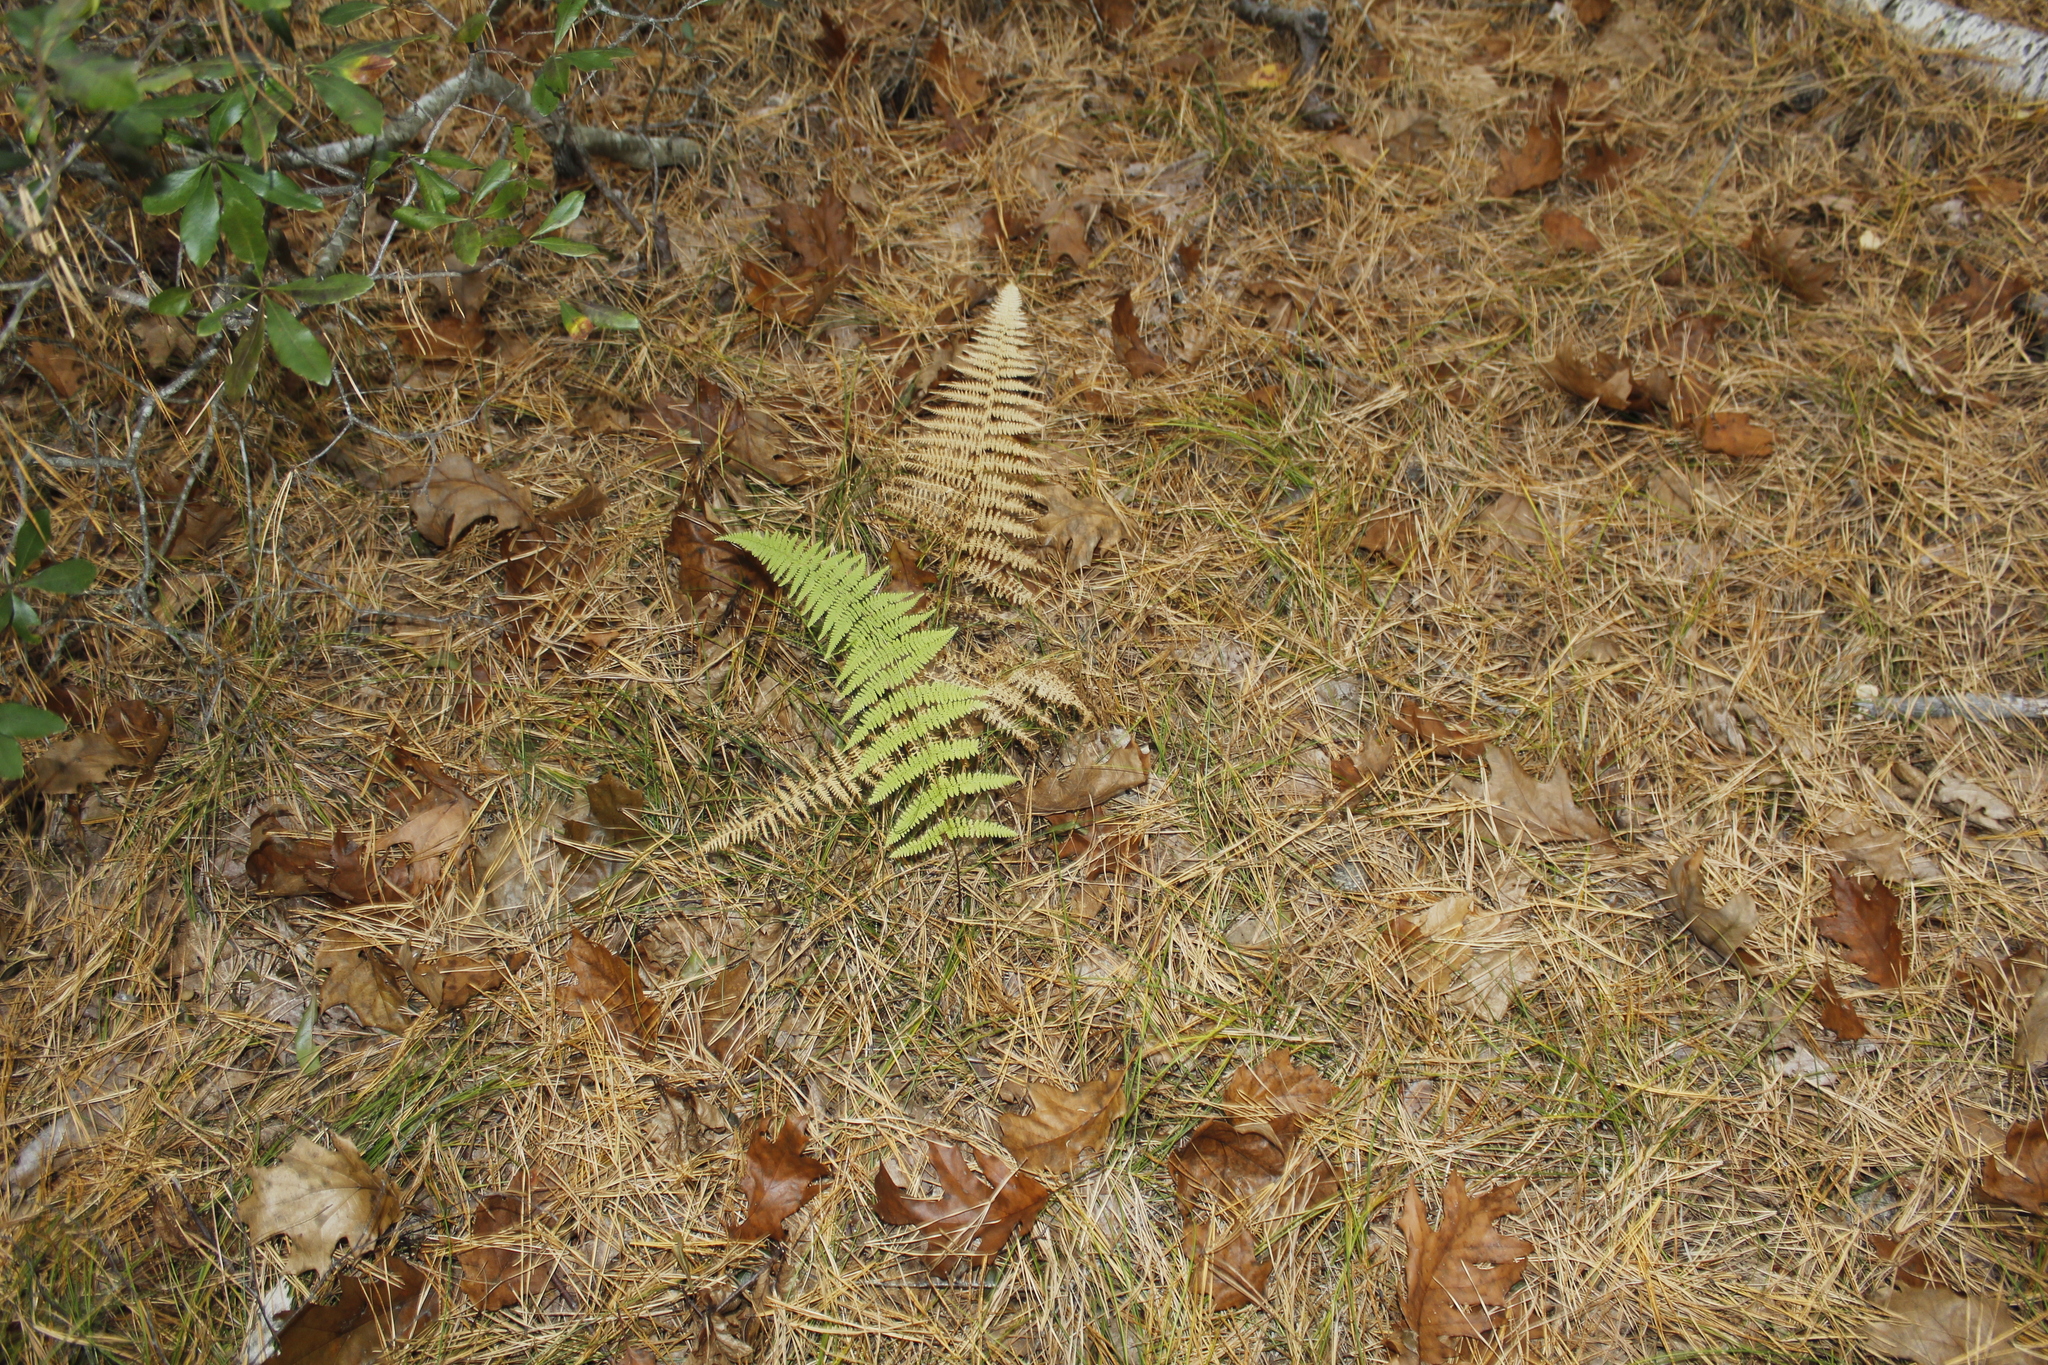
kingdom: Plantae
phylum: Tracheophyta
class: Polypodiopsida
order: Polypodiales
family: Dennstaedtiaceae
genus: Sitobolium
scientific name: Sitobolium punctilobum
